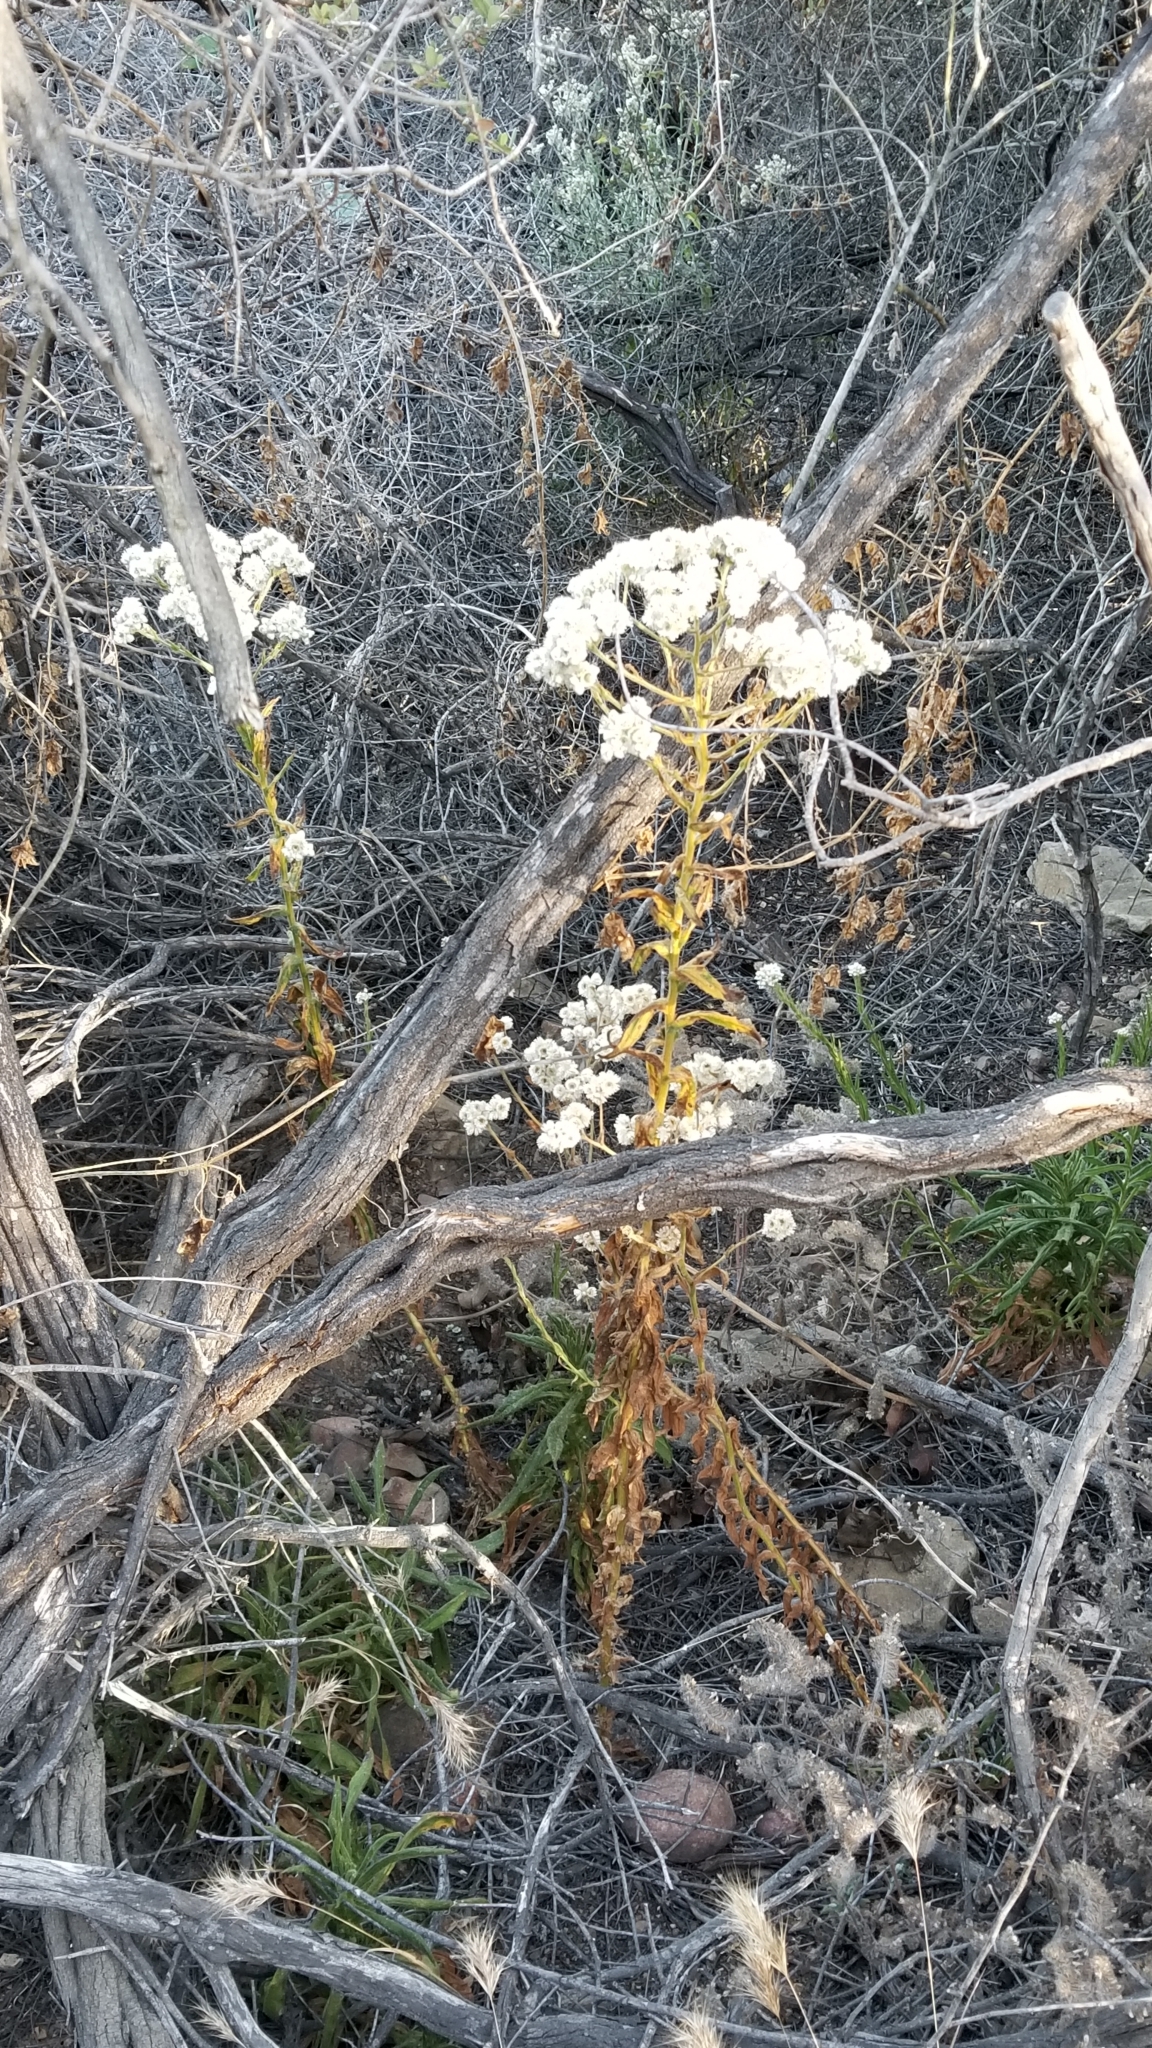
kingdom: Plantae
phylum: Tracheophyta
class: Magnoliopsida
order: Asterales
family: Asteraceae
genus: Pseudognaphalium
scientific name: Pseudognaphalium californicum
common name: California rabbit-tobacco
